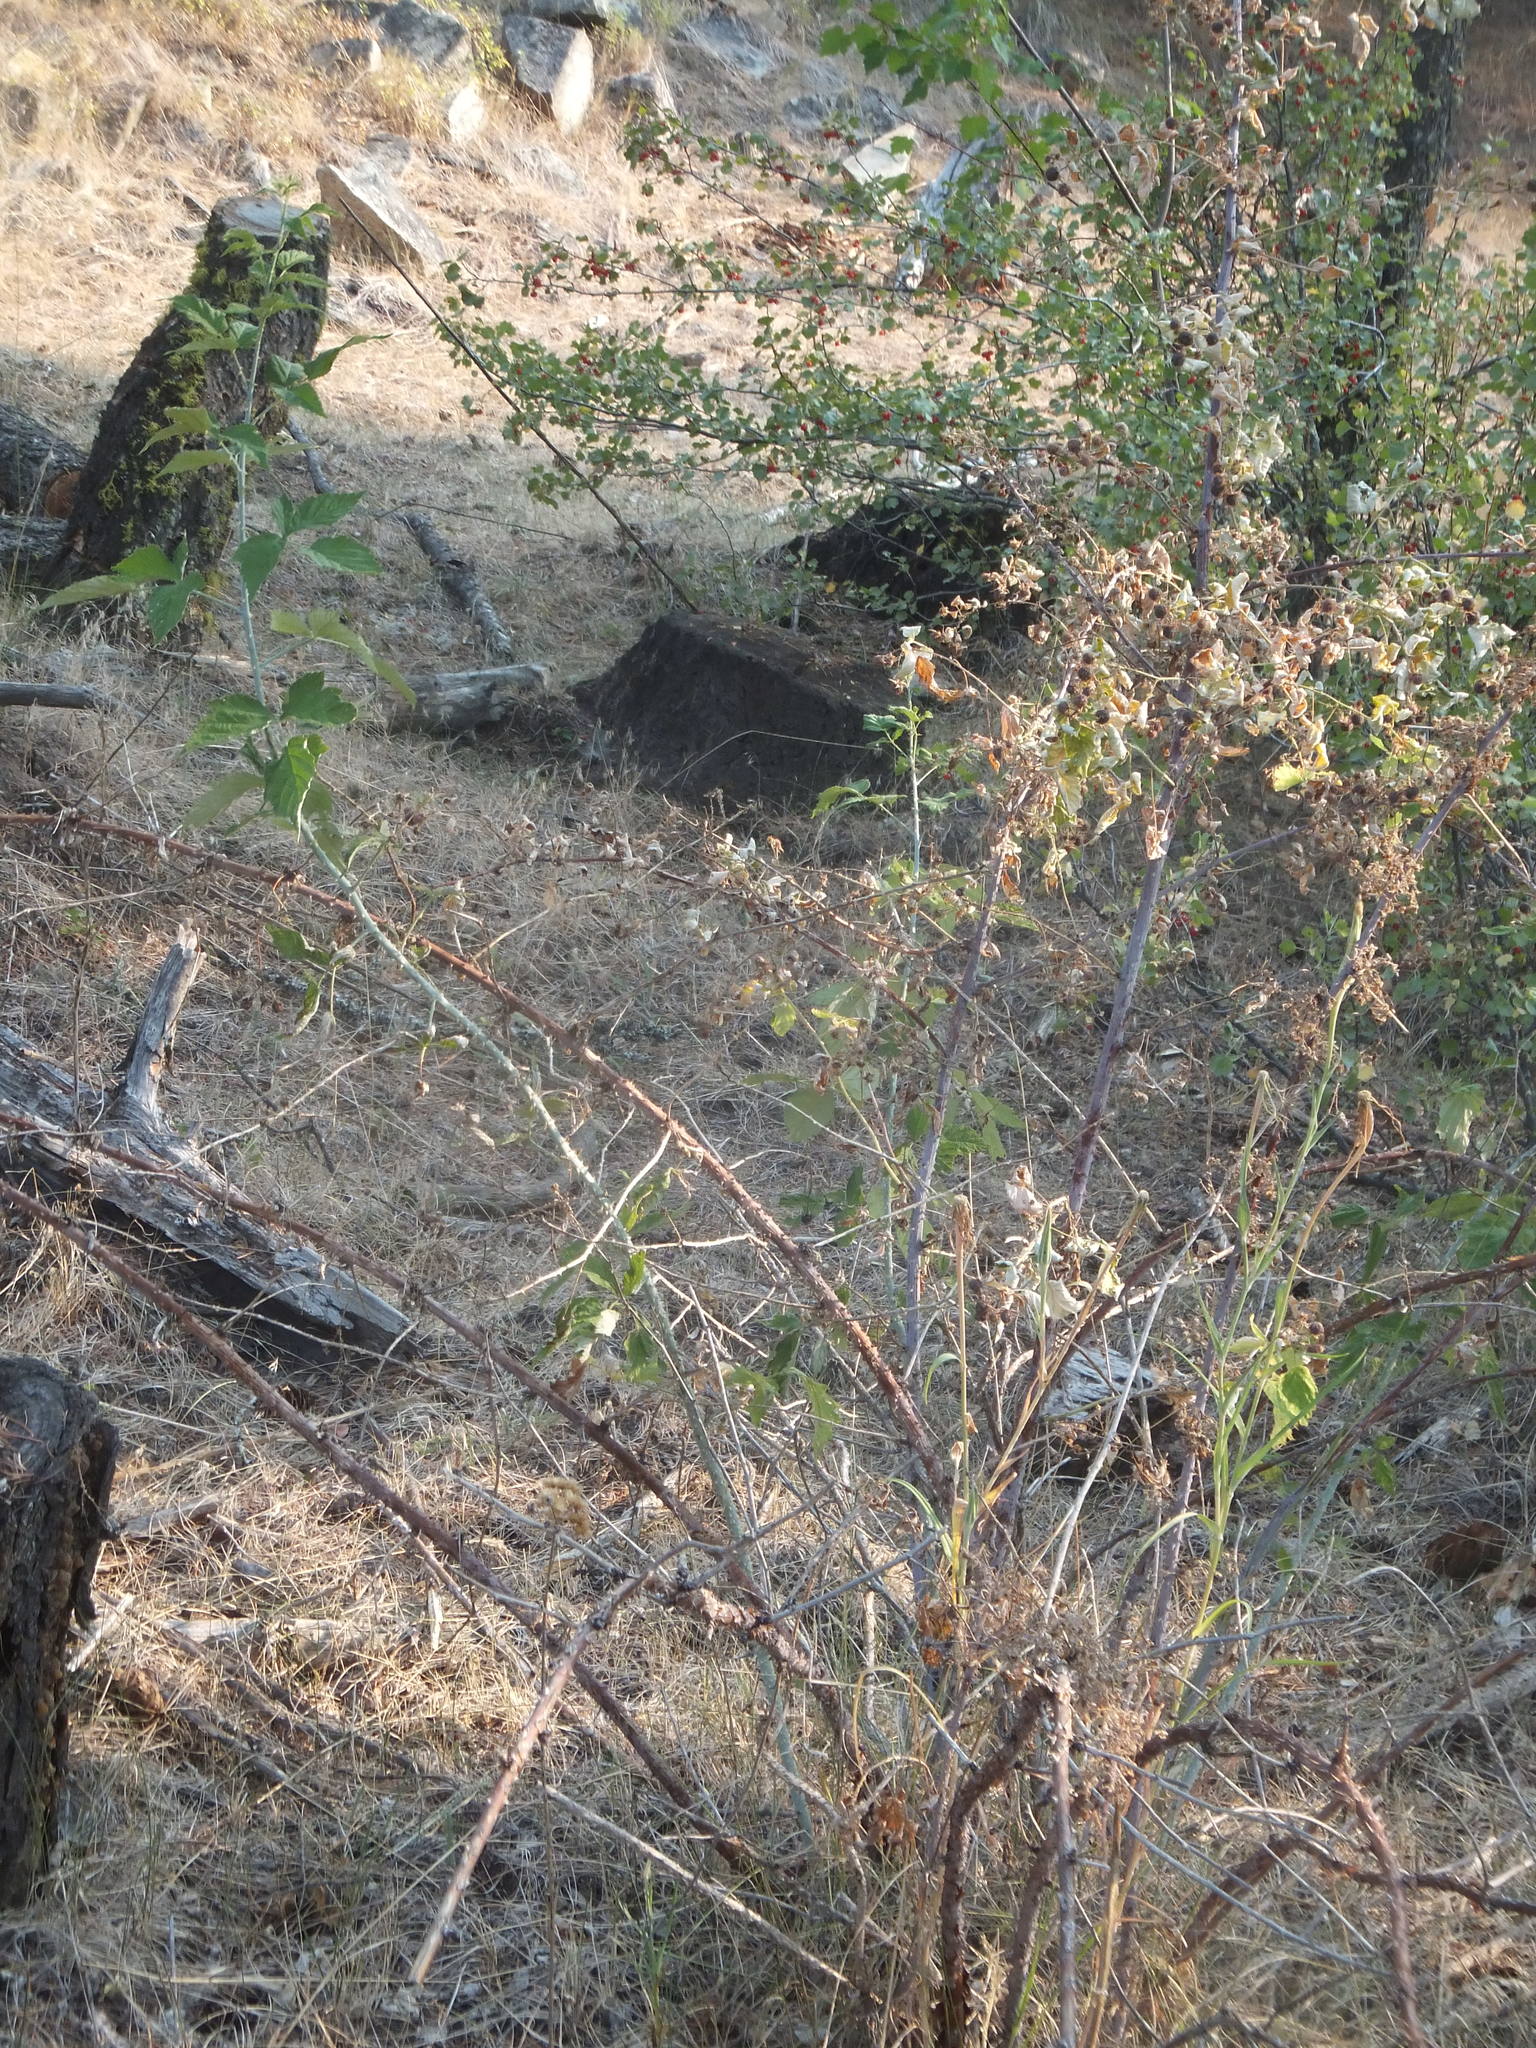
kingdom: Plantae
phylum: Tracheophyta
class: Magnoliopsida
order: Rosales
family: Rosaceae
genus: Rubus
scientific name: Rubus leucodermis
